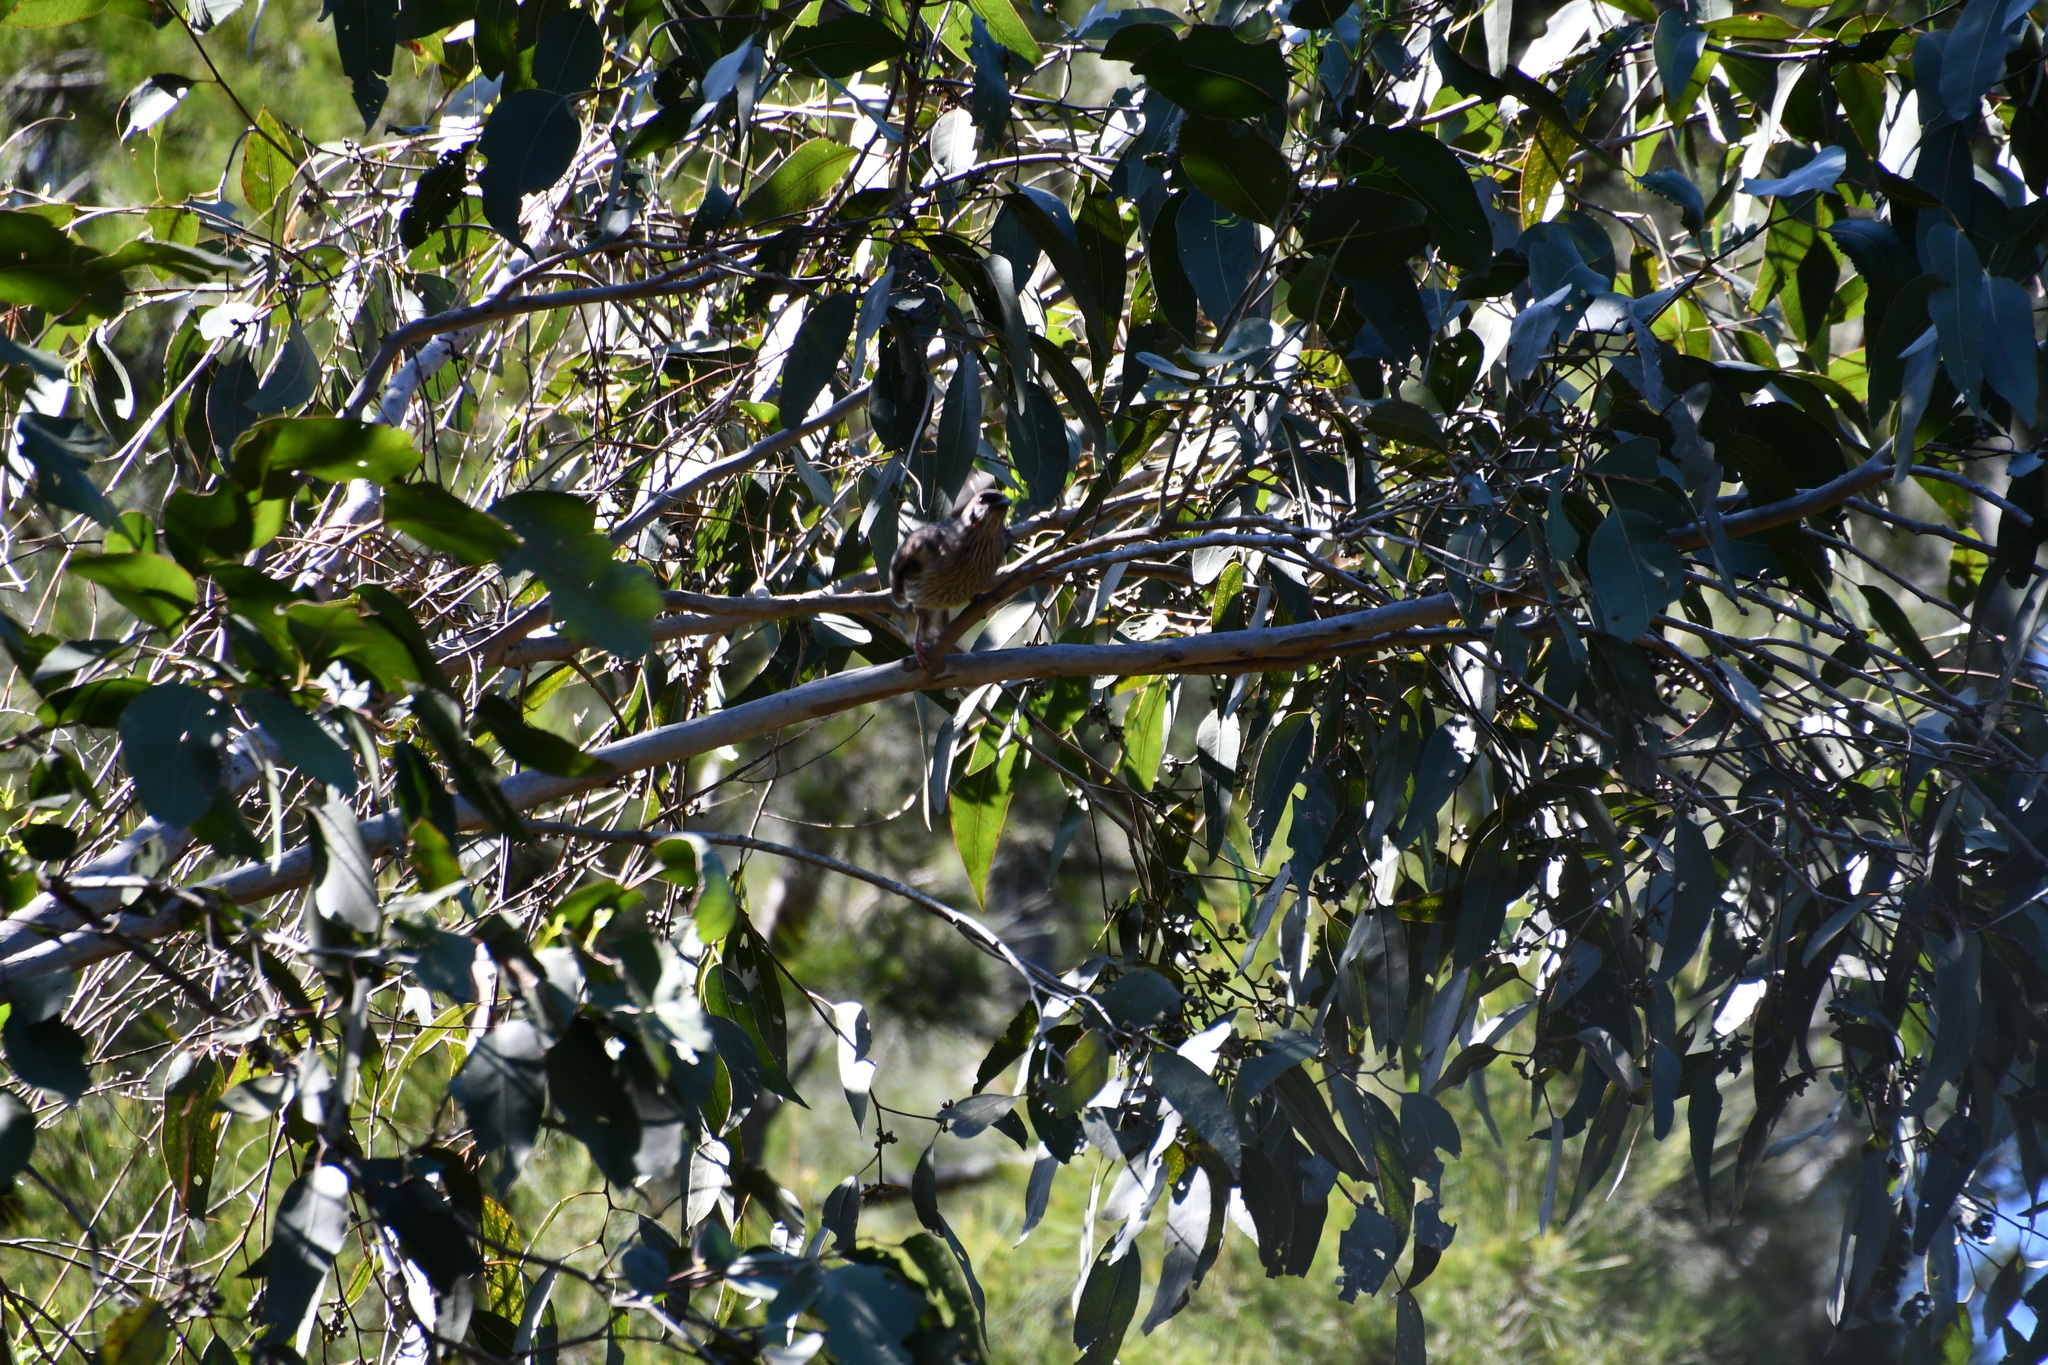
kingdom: Animalia
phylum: Chordata
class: Aves
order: Passeriformes
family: Meliphagidae
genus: Anthochaera
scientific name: Anthochaera carunculata
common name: Red wattlebird
